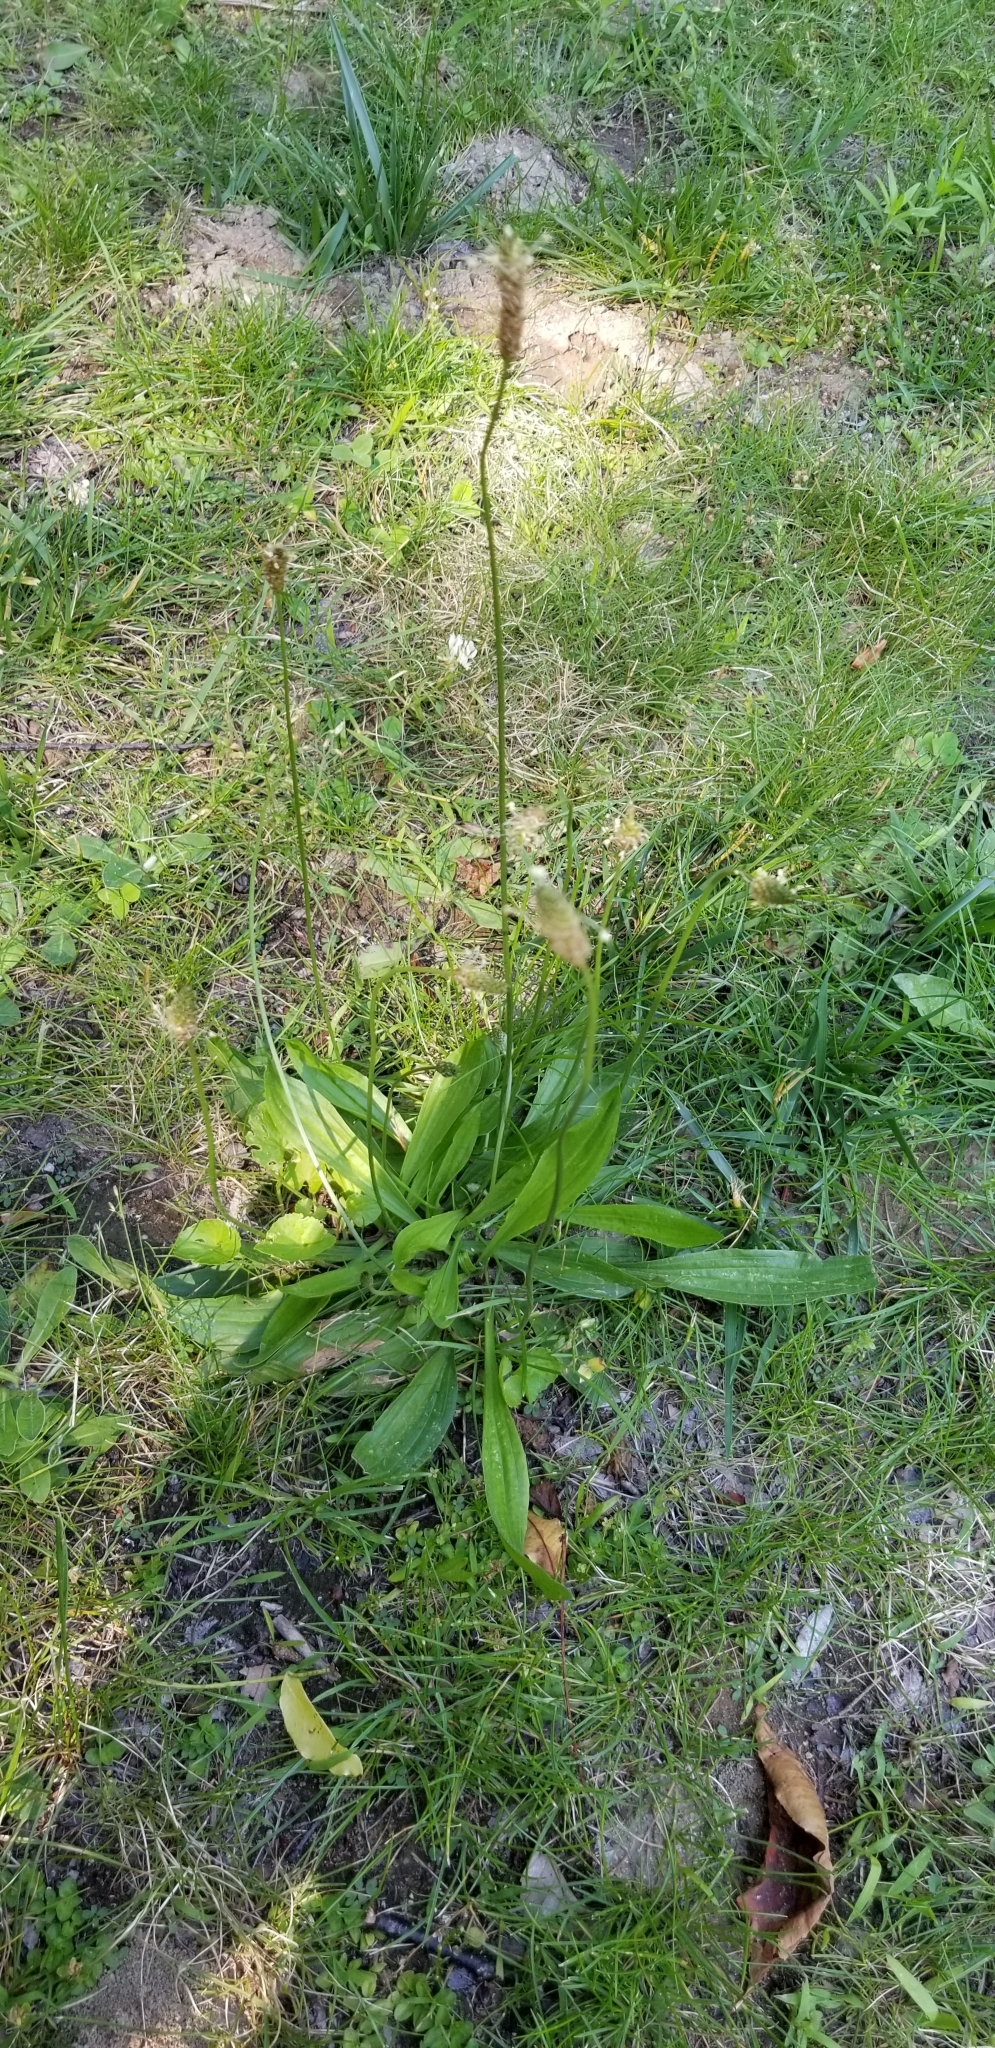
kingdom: Plantae
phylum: Tracheophyta
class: Magnoliopsida
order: Lamiales
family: Plantaginaceae
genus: Plantago
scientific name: Plantago lanceolata
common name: Ribwort plantain
